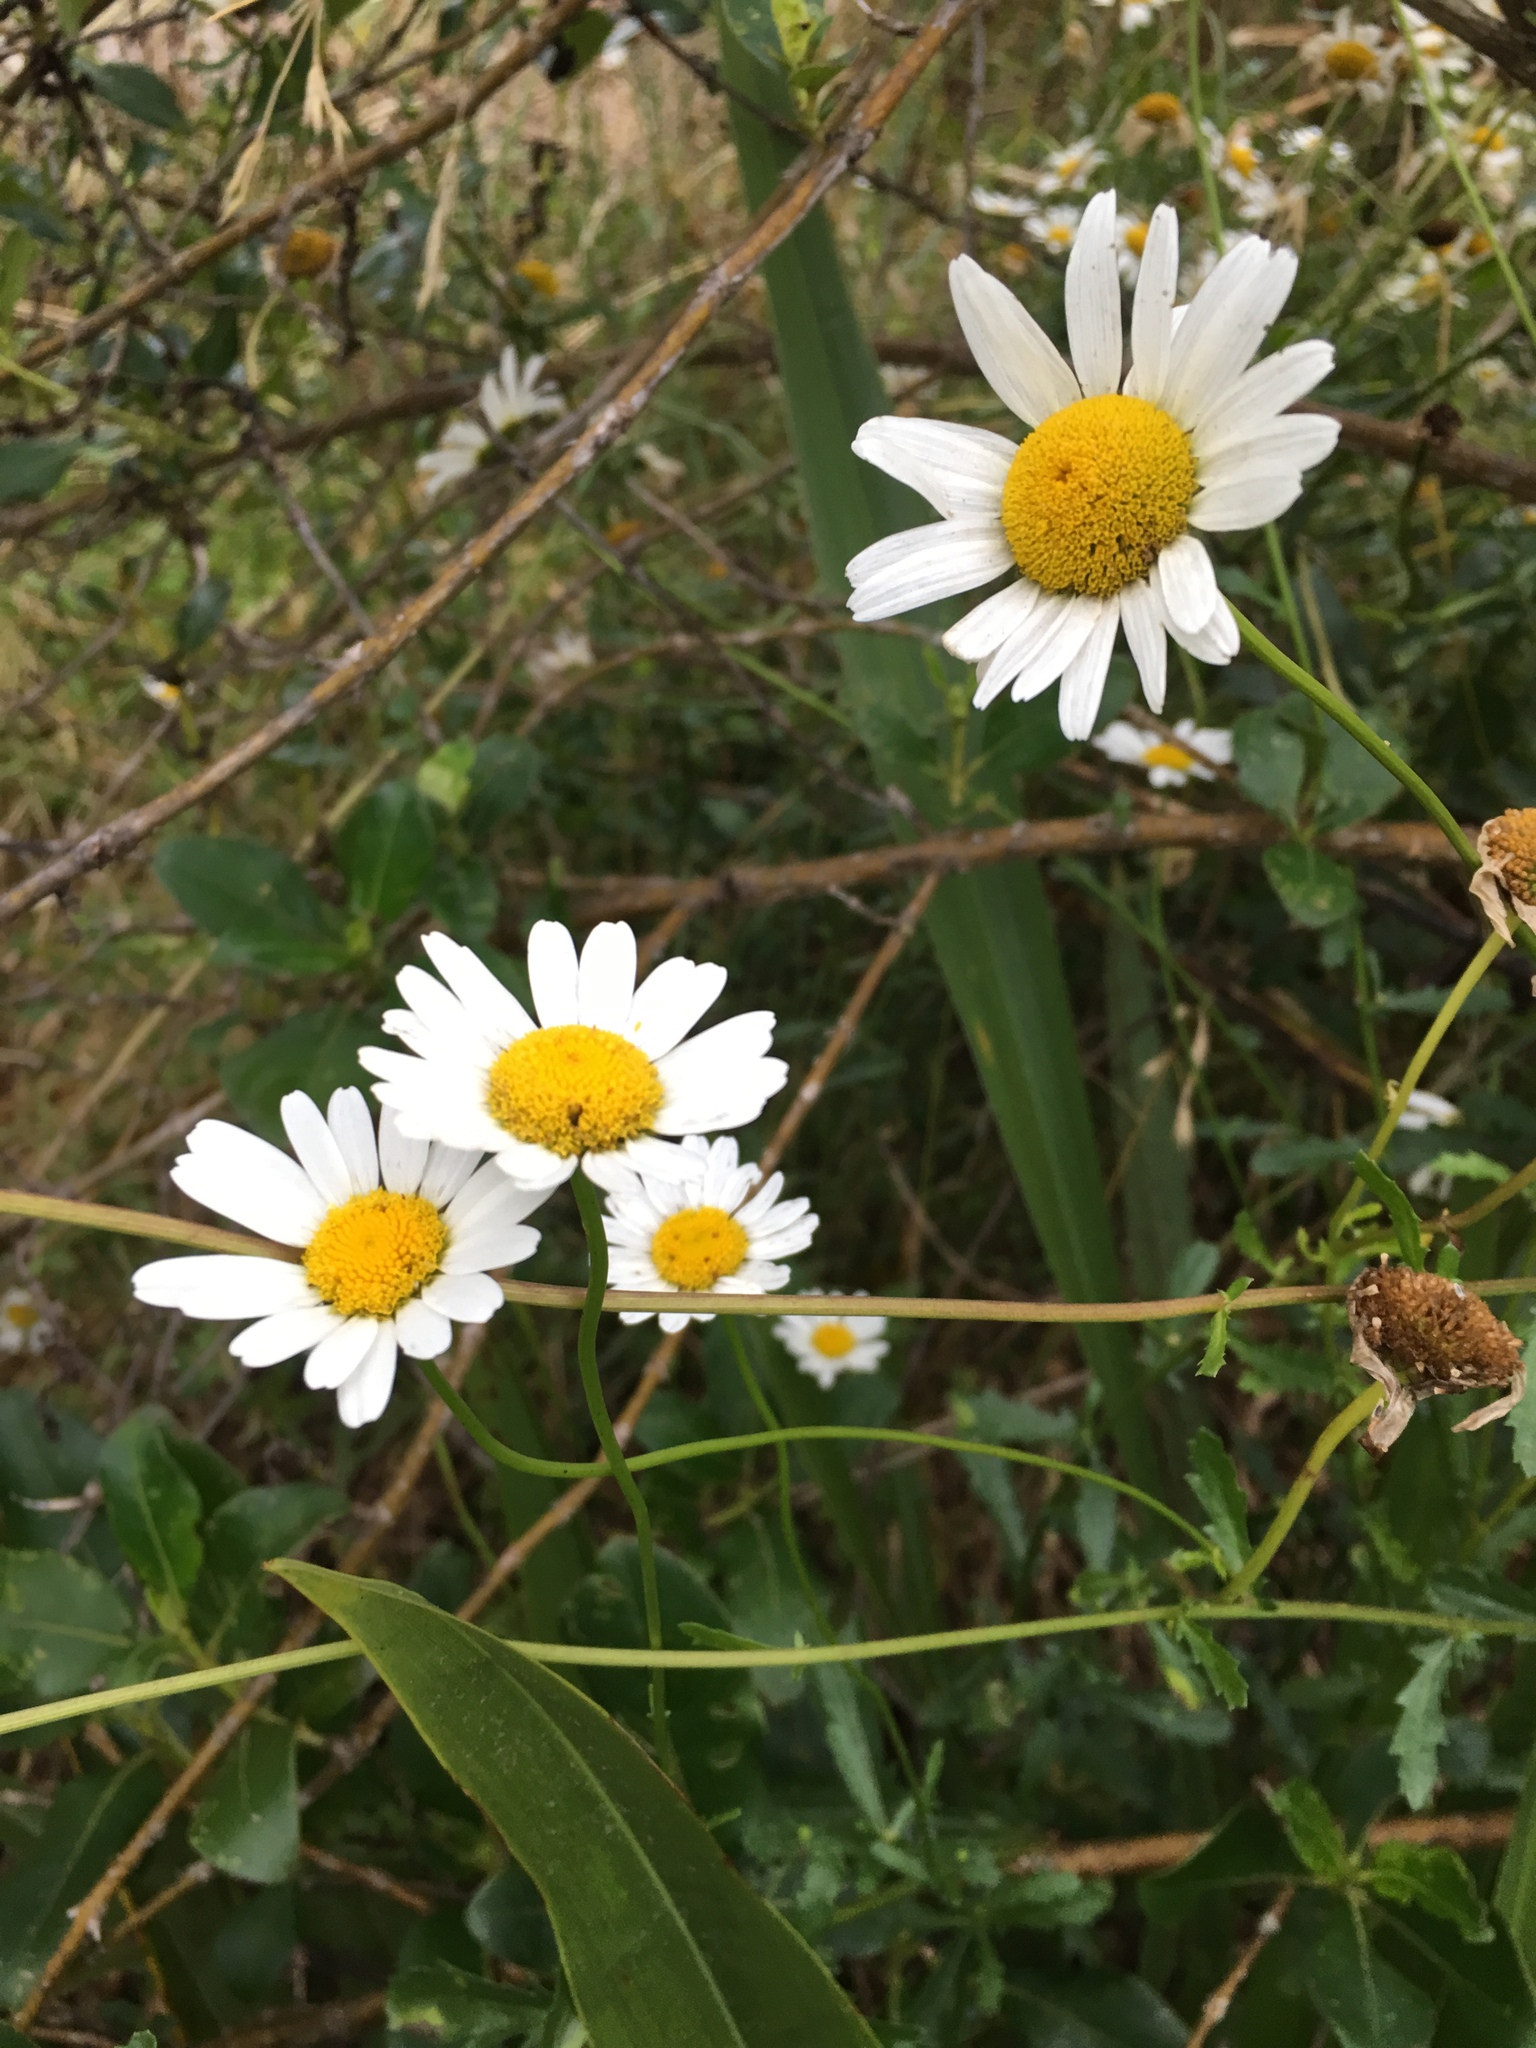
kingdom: Plantae
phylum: Tracheophyta
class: Magnoliopsida
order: Asterales
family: Asteraceae
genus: Leucanthemum
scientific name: Leucanthemum vulgare
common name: Oxeye daisy
